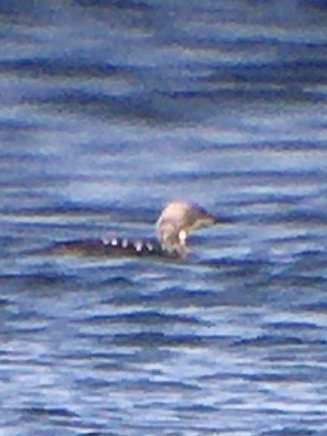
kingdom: Animalia
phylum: Chordata
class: Aves
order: Gaviiformes
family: Gaviidae
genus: Gavia
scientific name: Gavia pacifica
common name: Pacific loon
